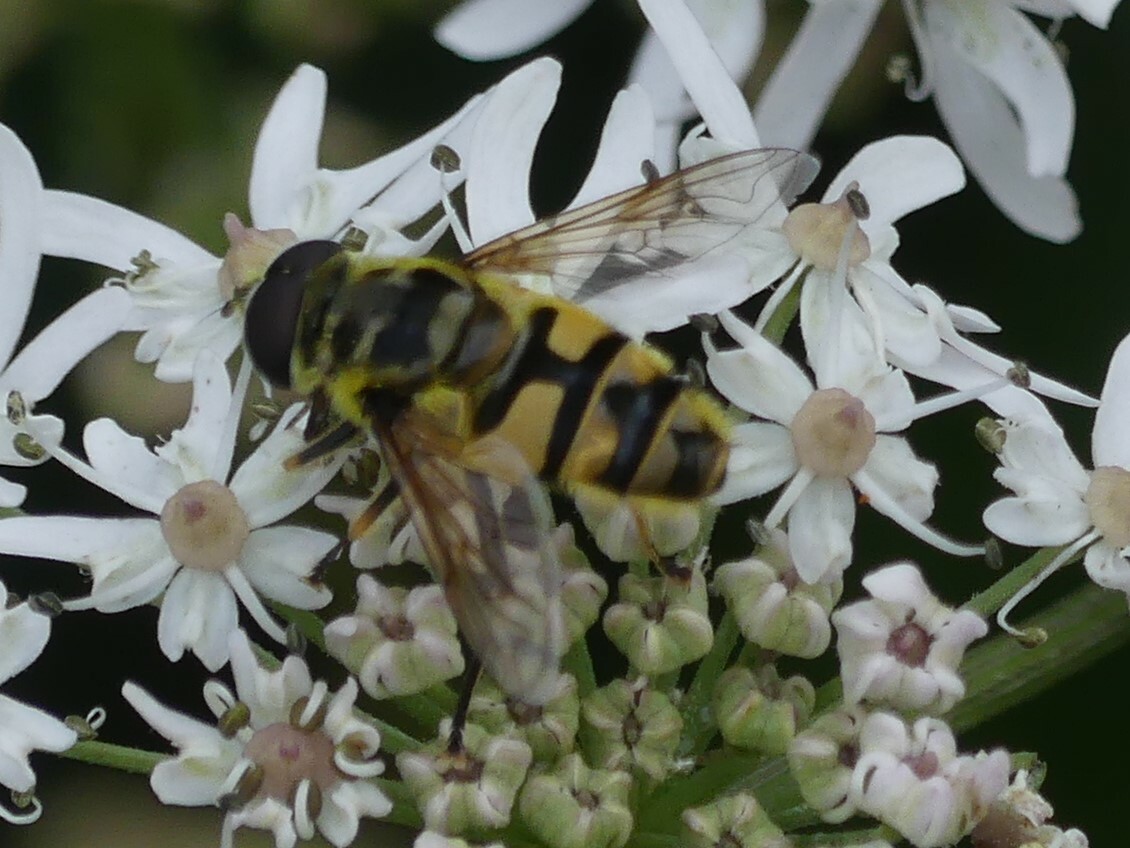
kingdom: Animalia
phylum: Arthropoda
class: Insecta
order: Diptera
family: Syrphidae
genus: Myathropa
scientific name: Myathropa florea
